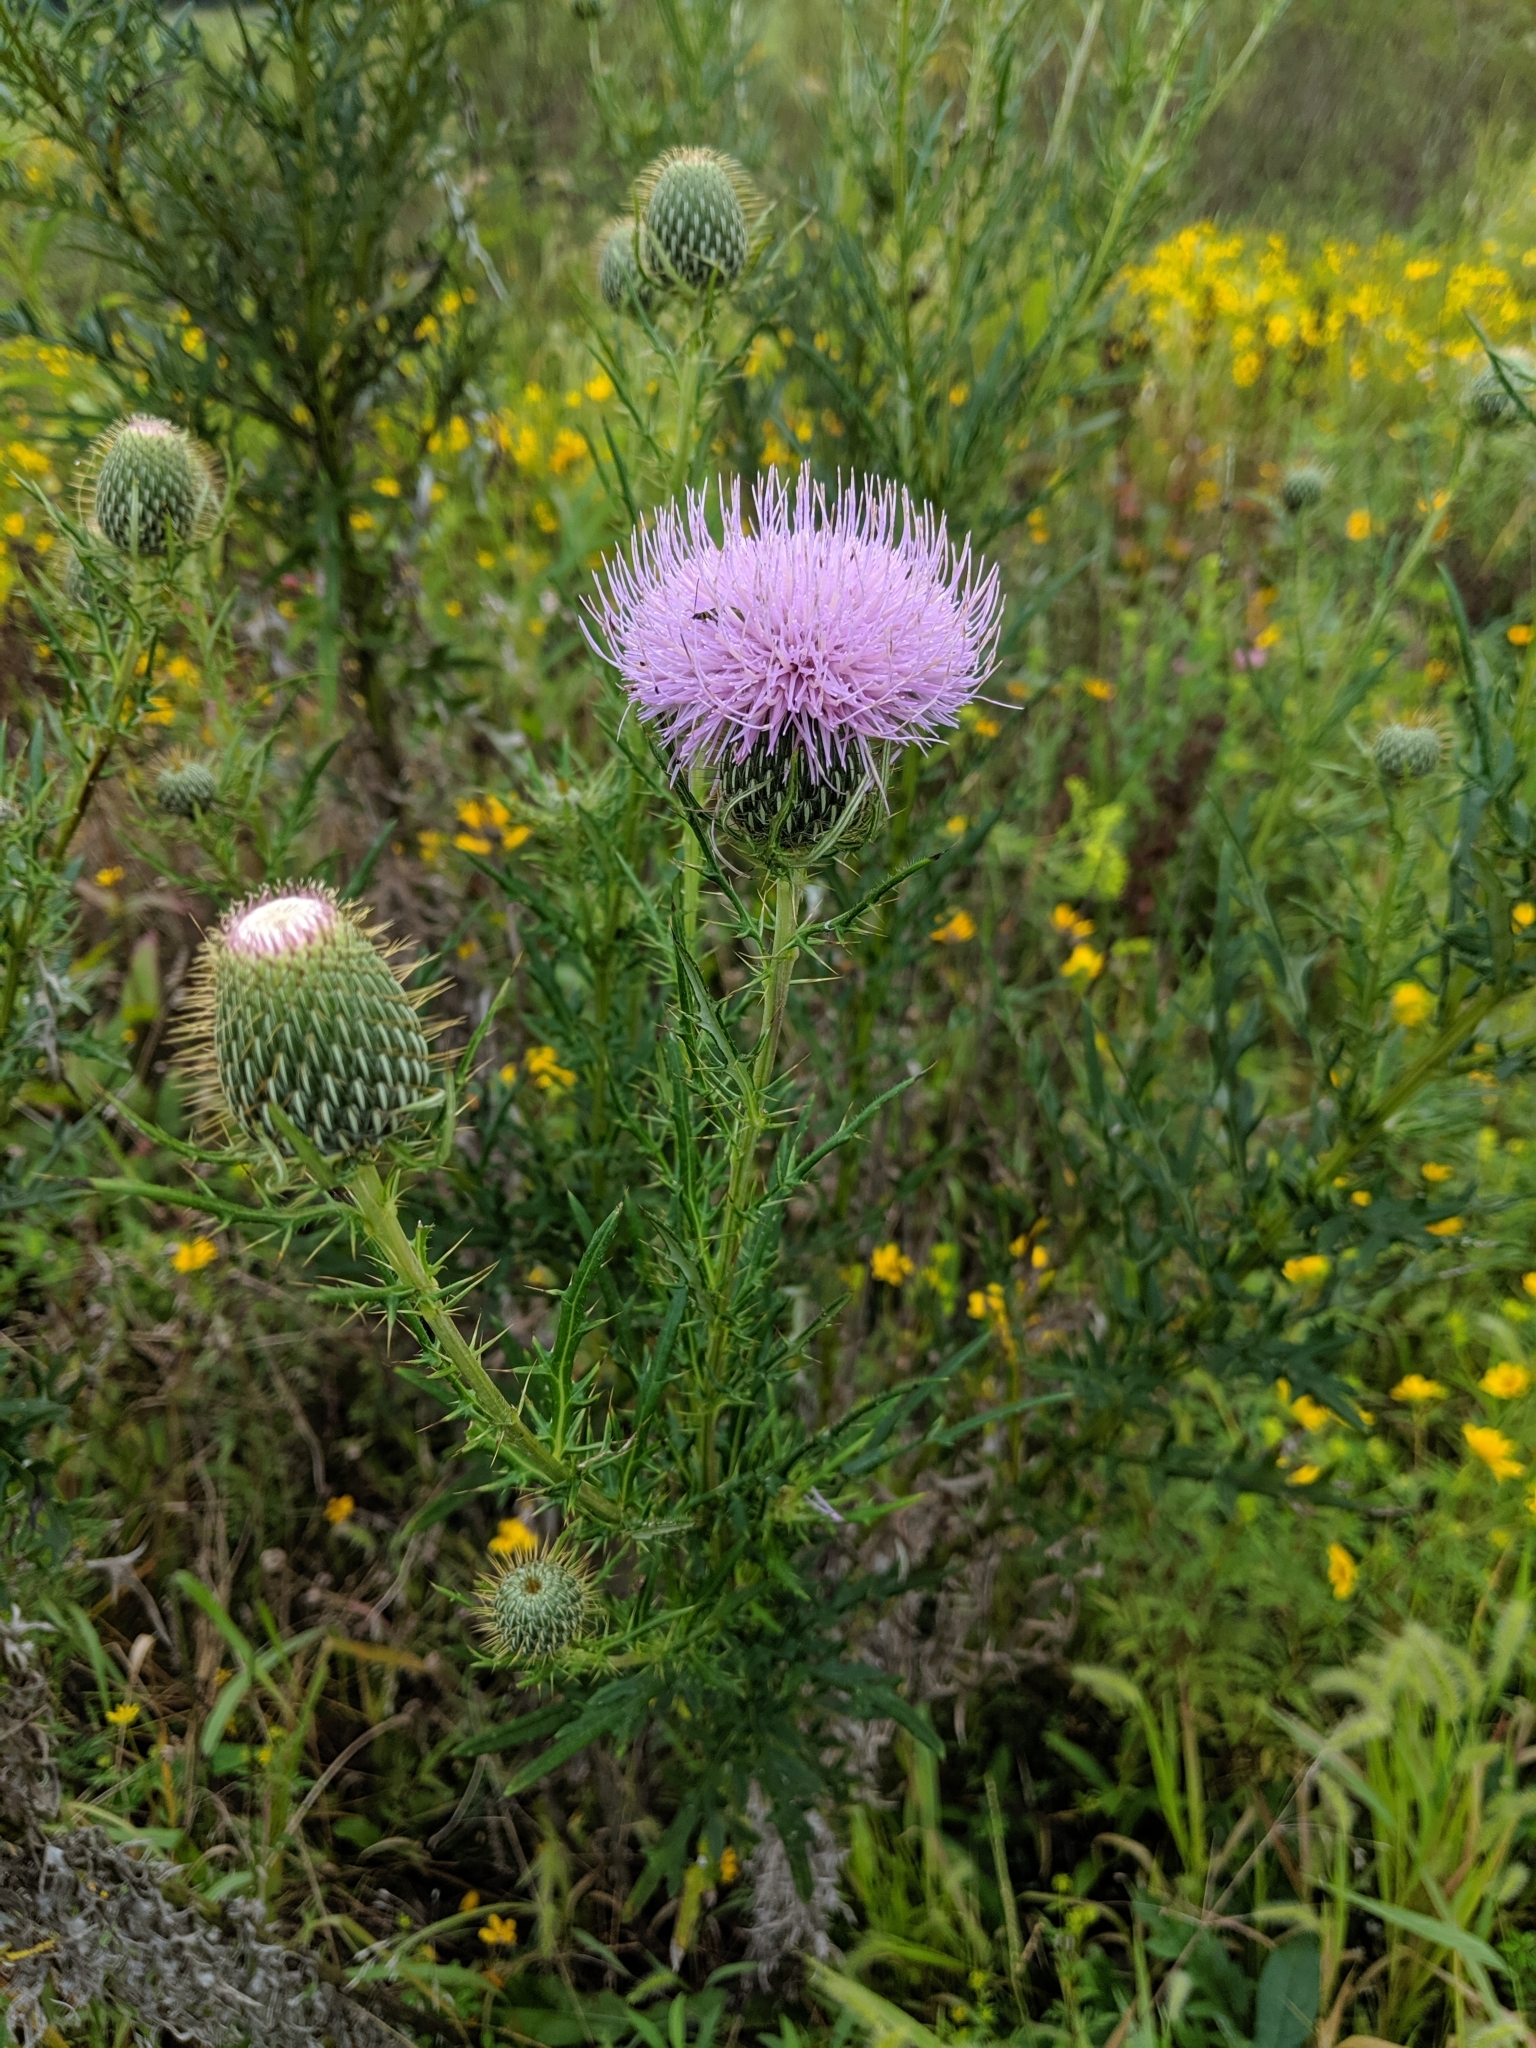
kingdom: Plantae
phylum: Tracheophyta
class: Magnoliopsida
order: Asterales
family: Asteraceae
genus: Cirsium
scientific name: Cirsium discolor
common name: Field thistle
